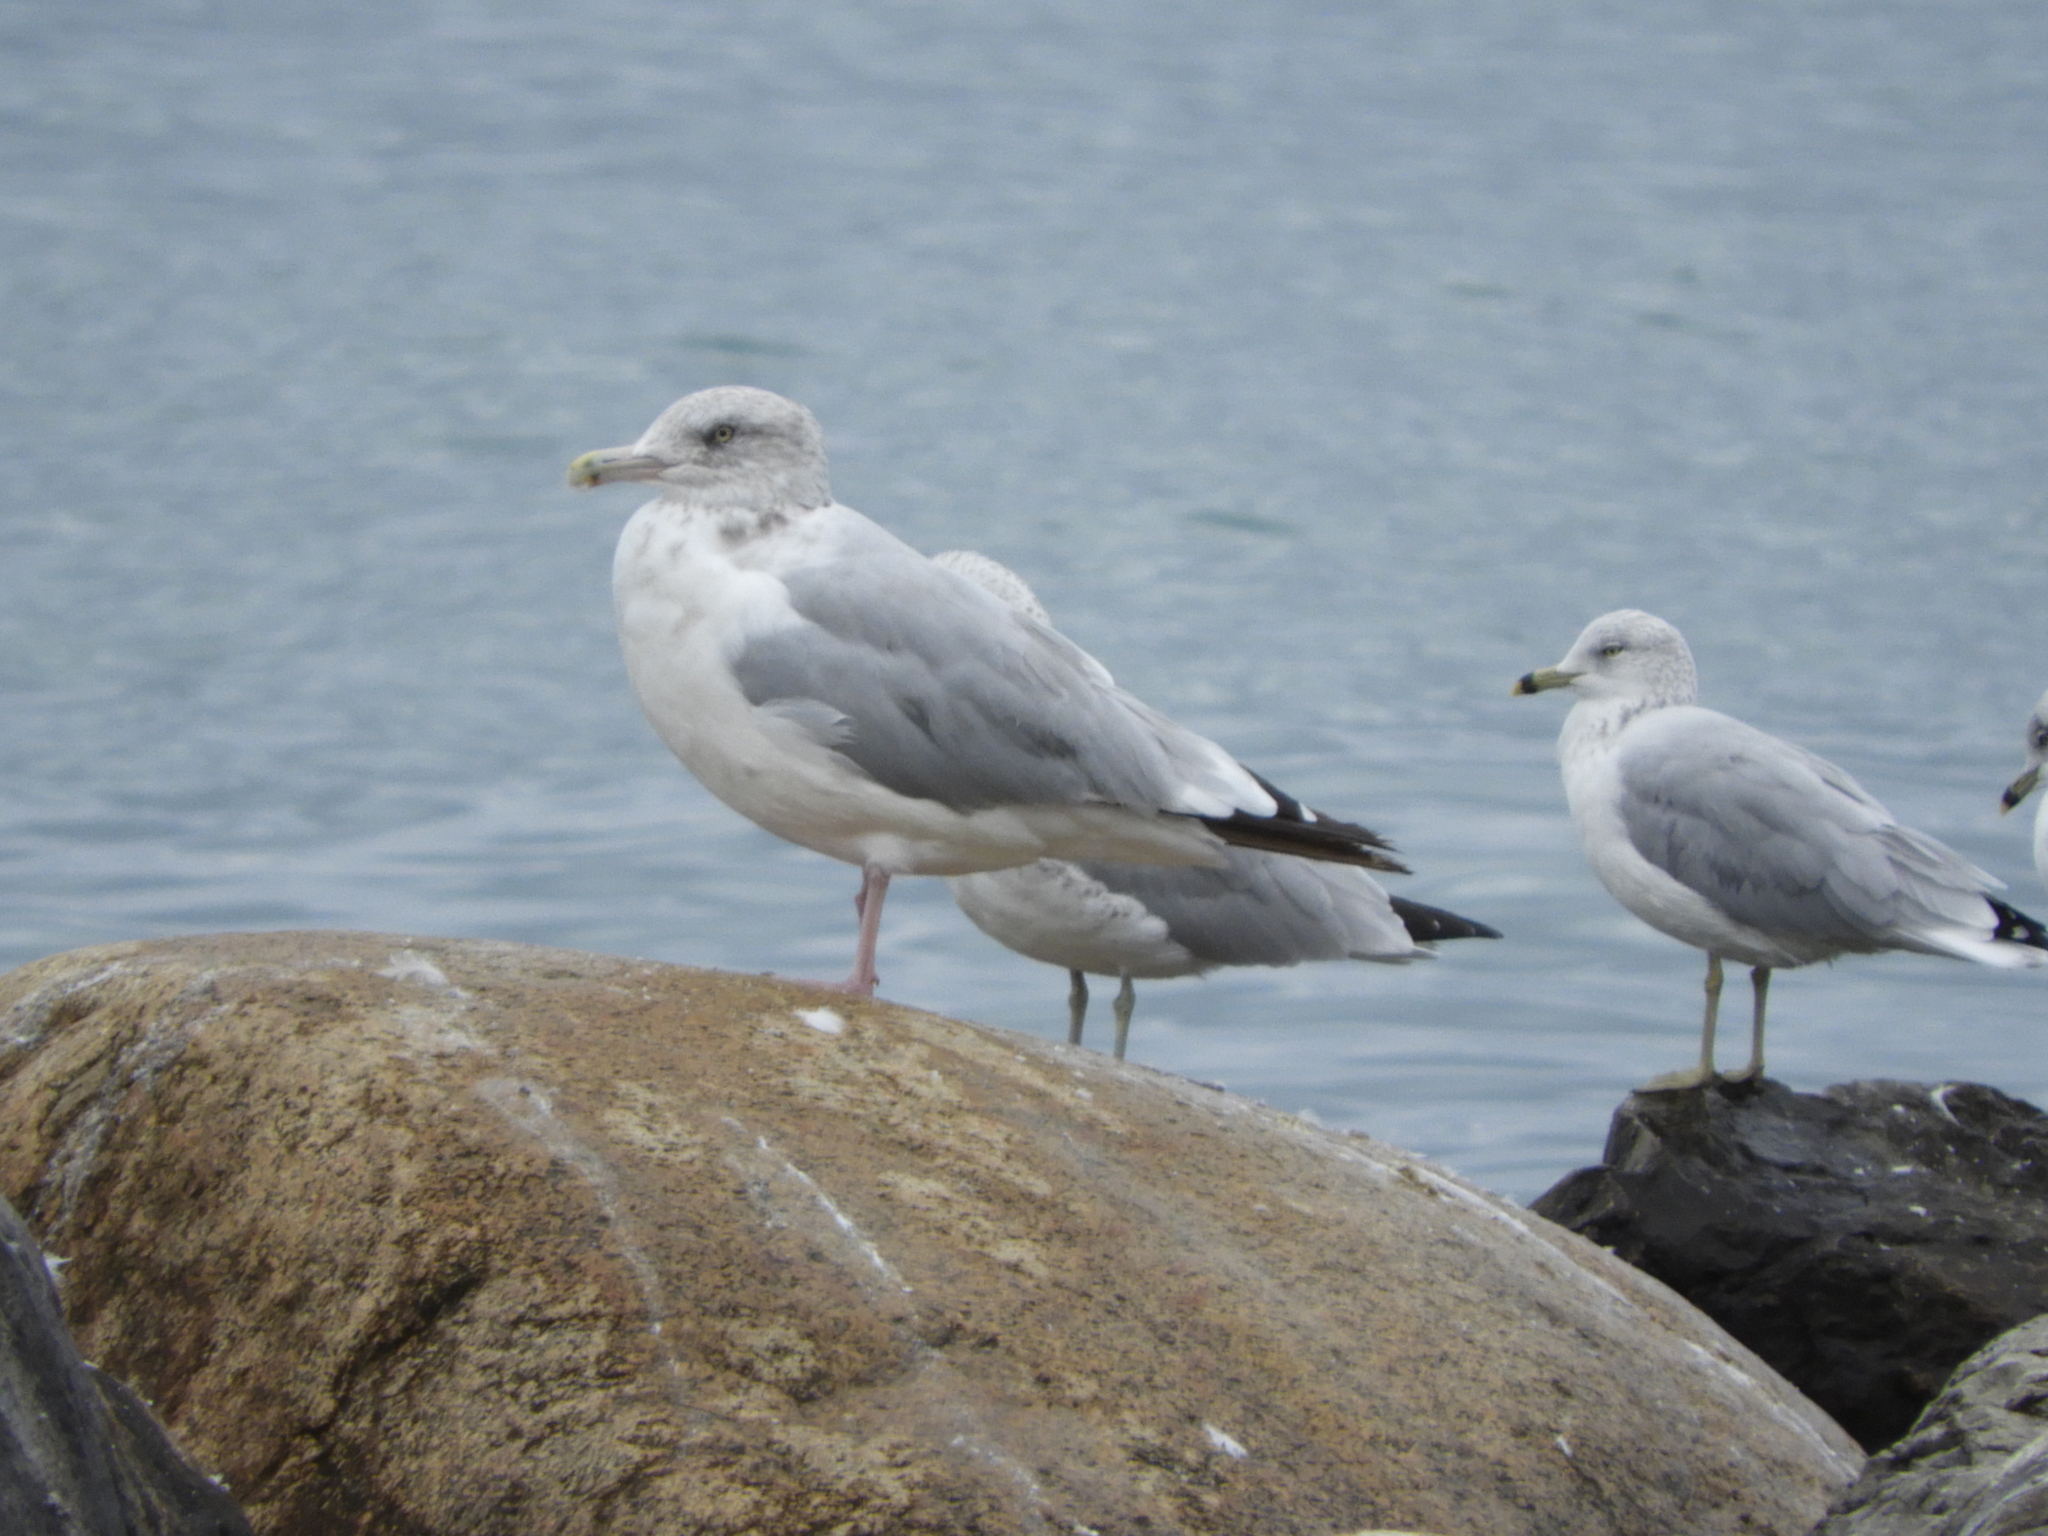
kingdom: Animalia
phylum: Chordata
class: Aves
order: Charadriiformes
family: Laridae
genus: Larus
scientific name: Larus argentatus
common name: Herring gull
